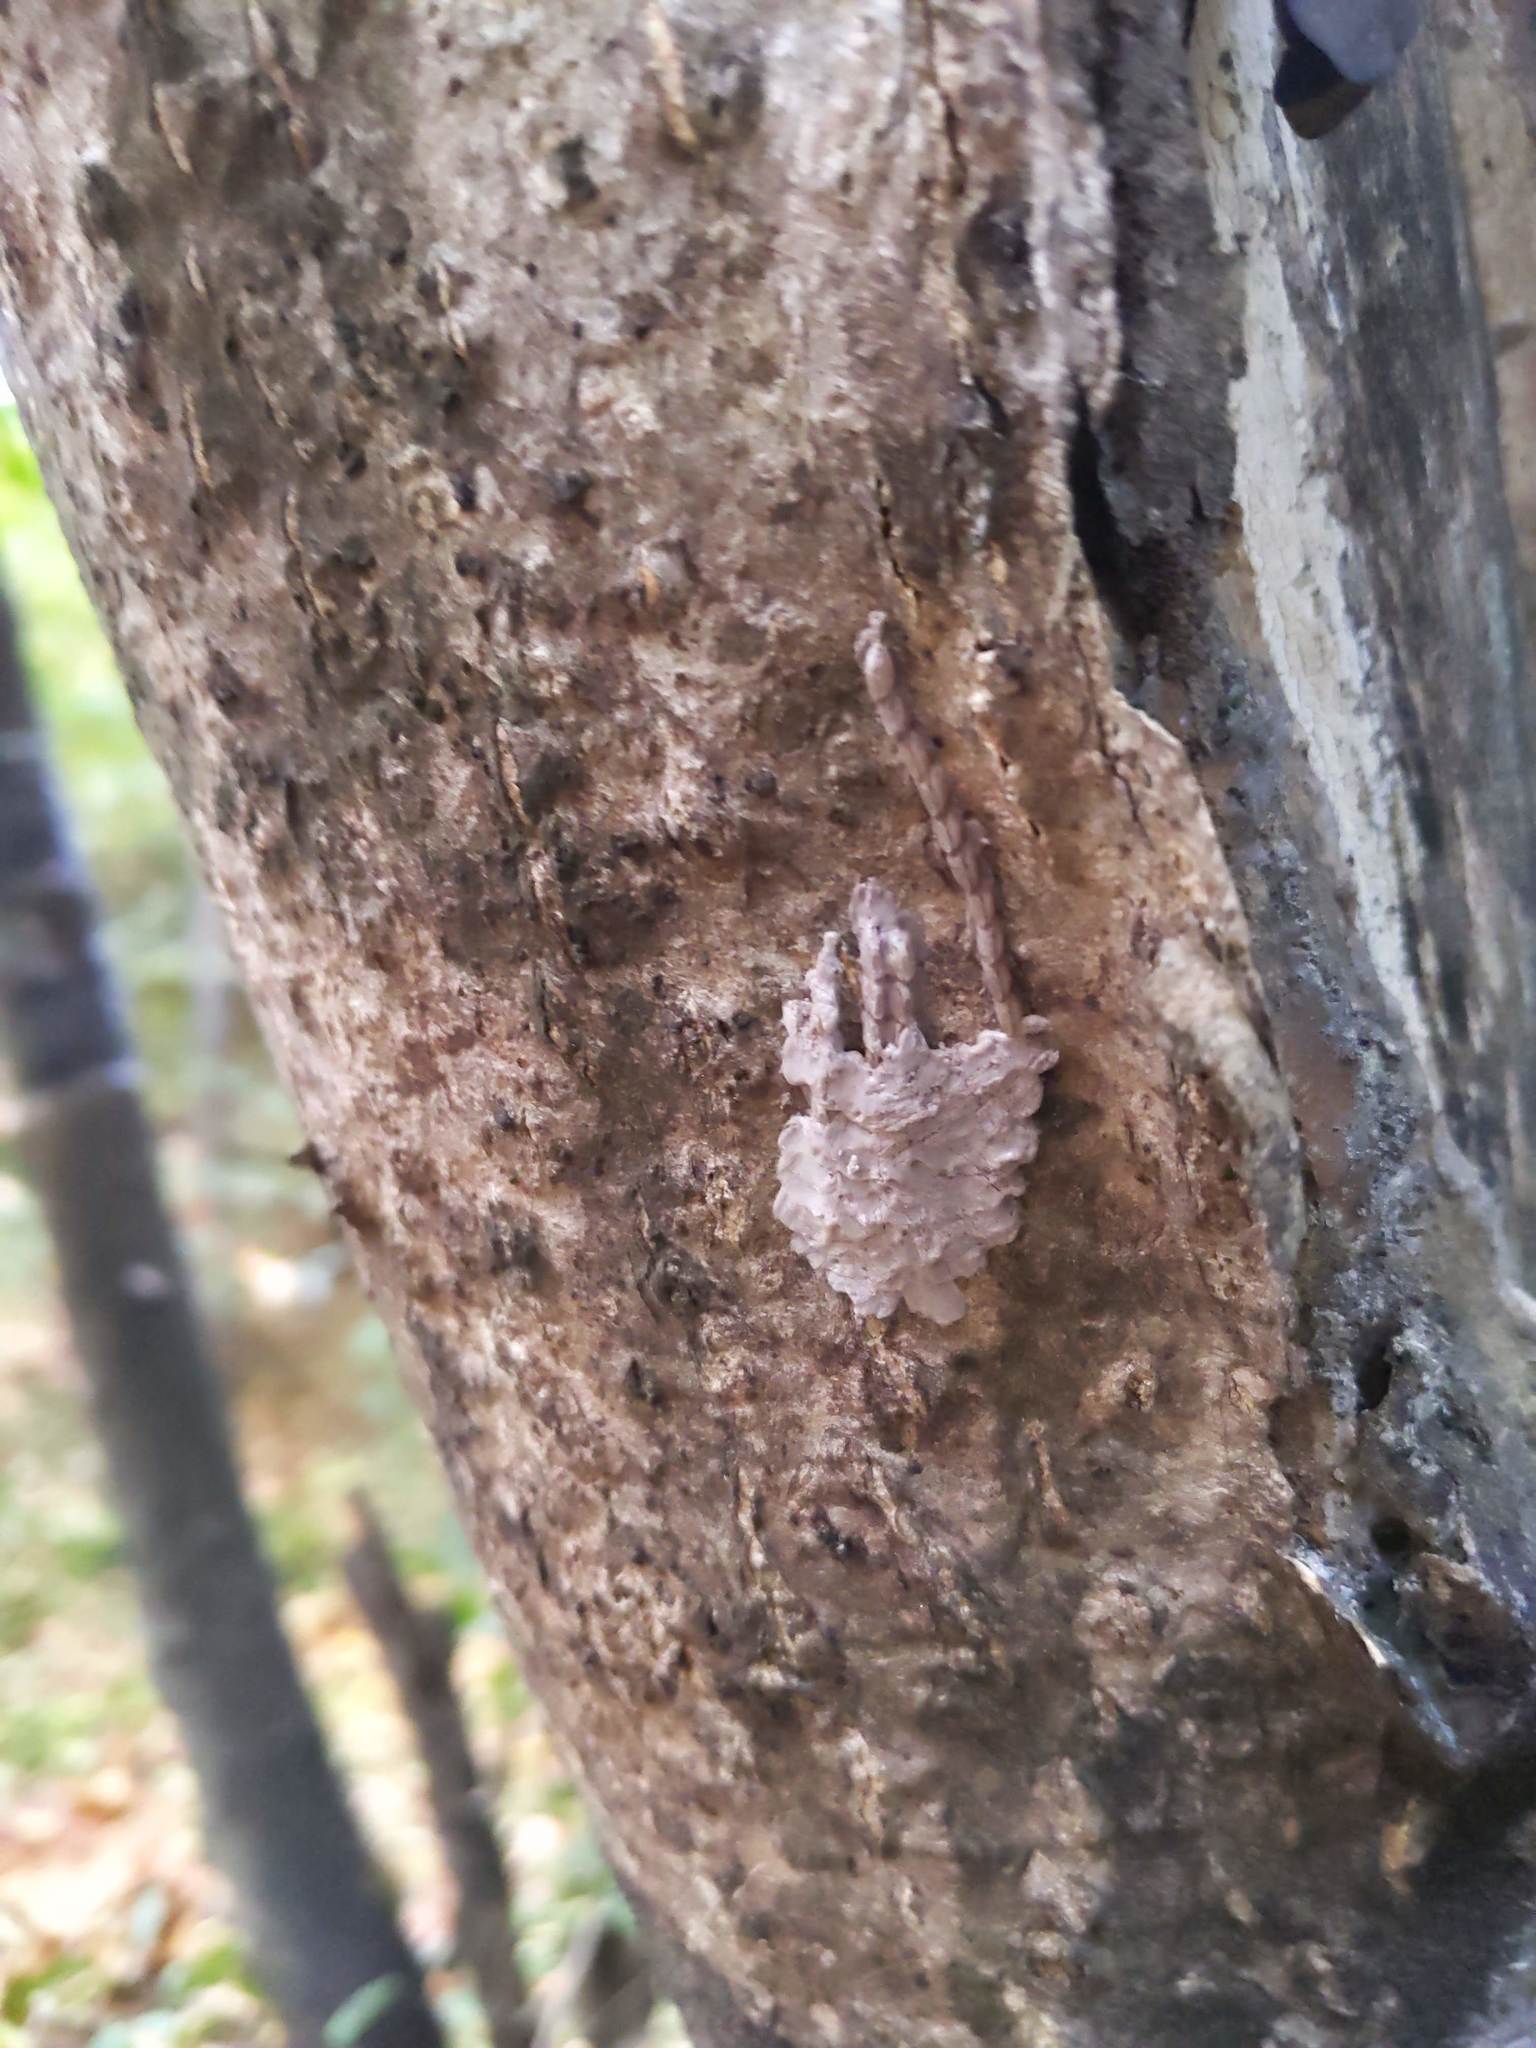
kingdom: Animalia
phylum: Arthropoda
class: Insecta
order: Hemiptera
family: Fulgoridae
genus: Lycorma
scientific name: Lycorma delicatula
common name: Spotted lanternfly
